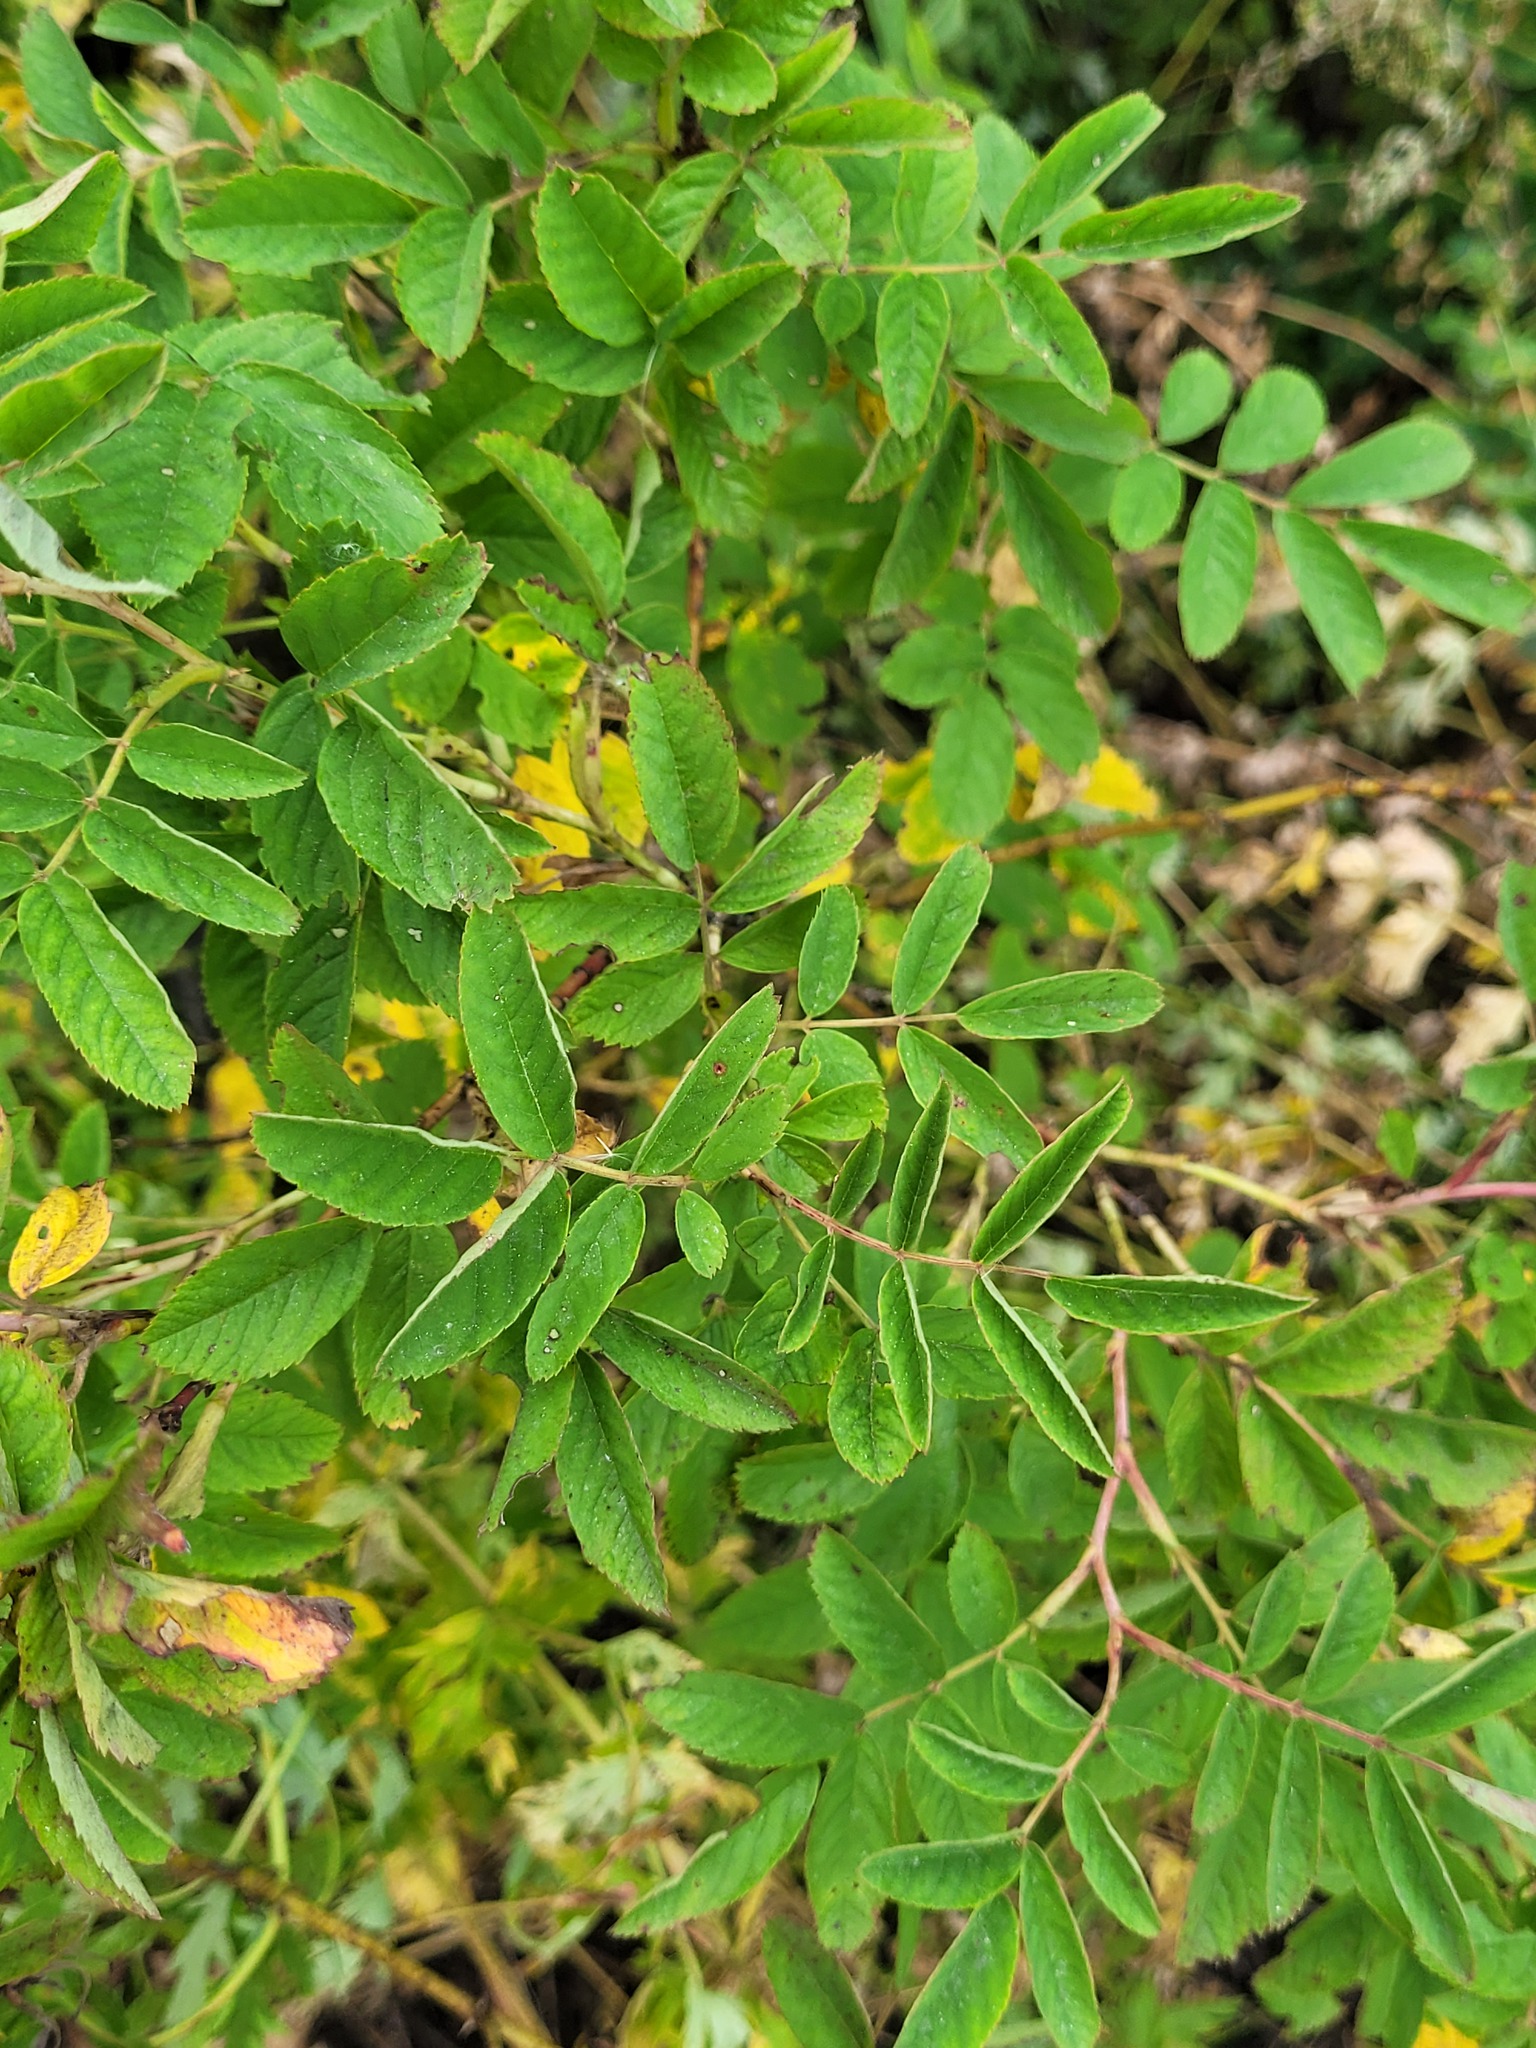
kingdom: Plantae
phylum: Tracheophyta
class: Magnoliopsida
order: Rosales
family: Rosaceae
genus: Rosa
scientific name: Rosa majalis
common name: Cinnamon rose
